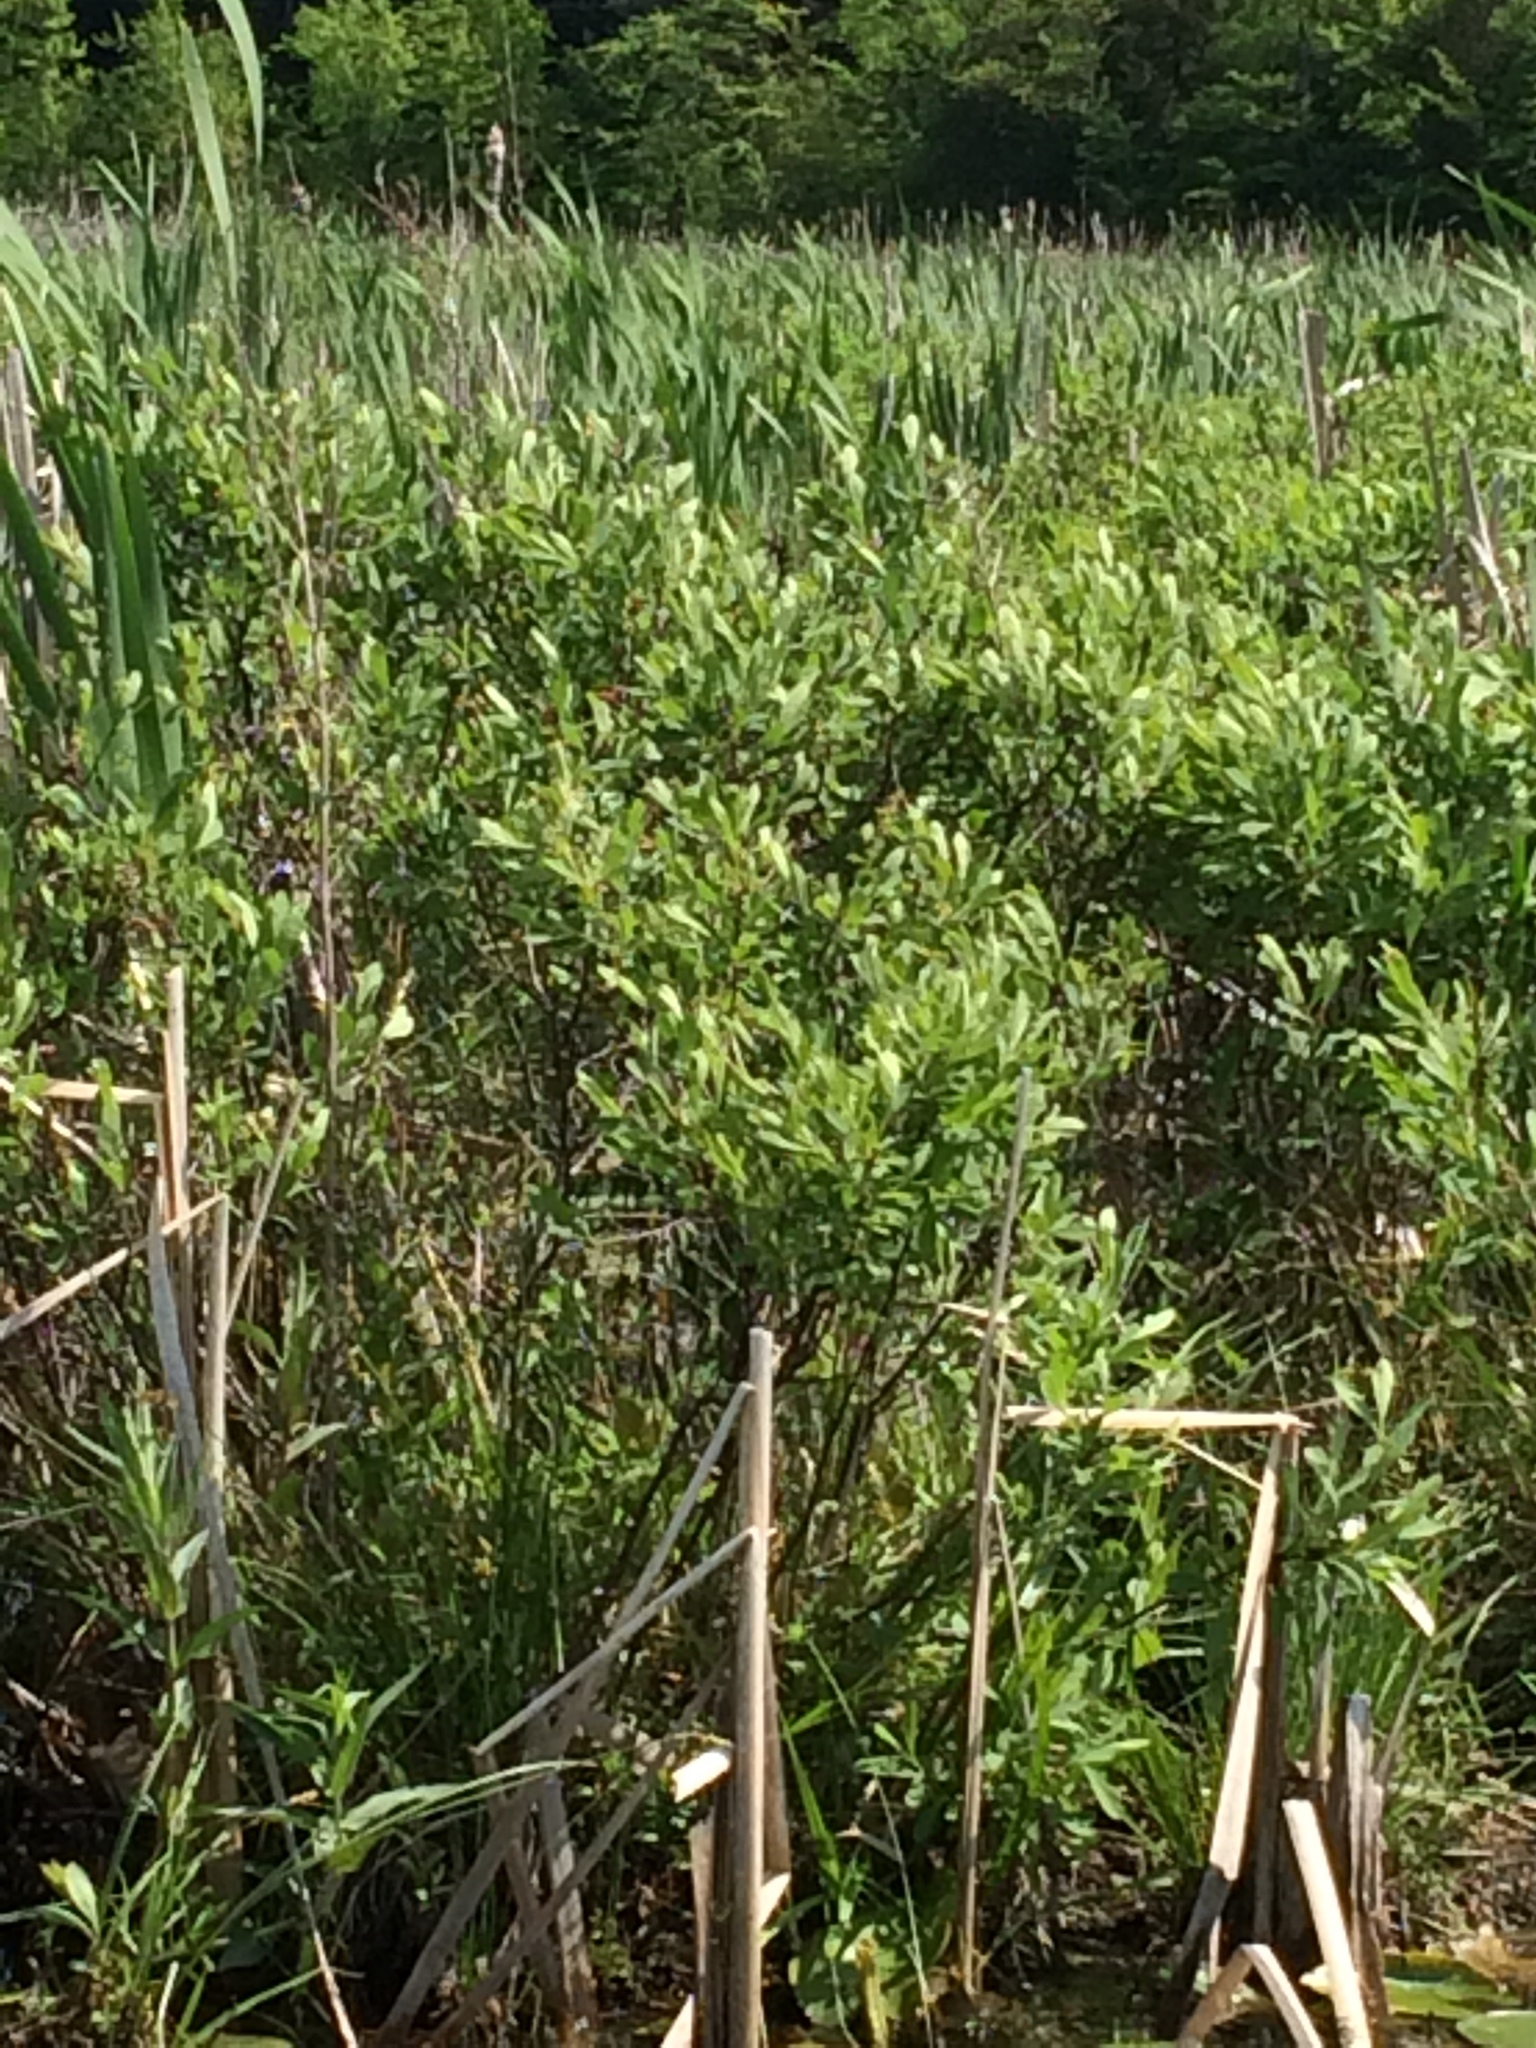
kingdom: Plantae
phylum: Tracheophyta
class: Magnoliopsida
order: Fagales
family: Myricaceae
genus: Myrica
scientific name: Myrica gale
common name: Sweet gale
